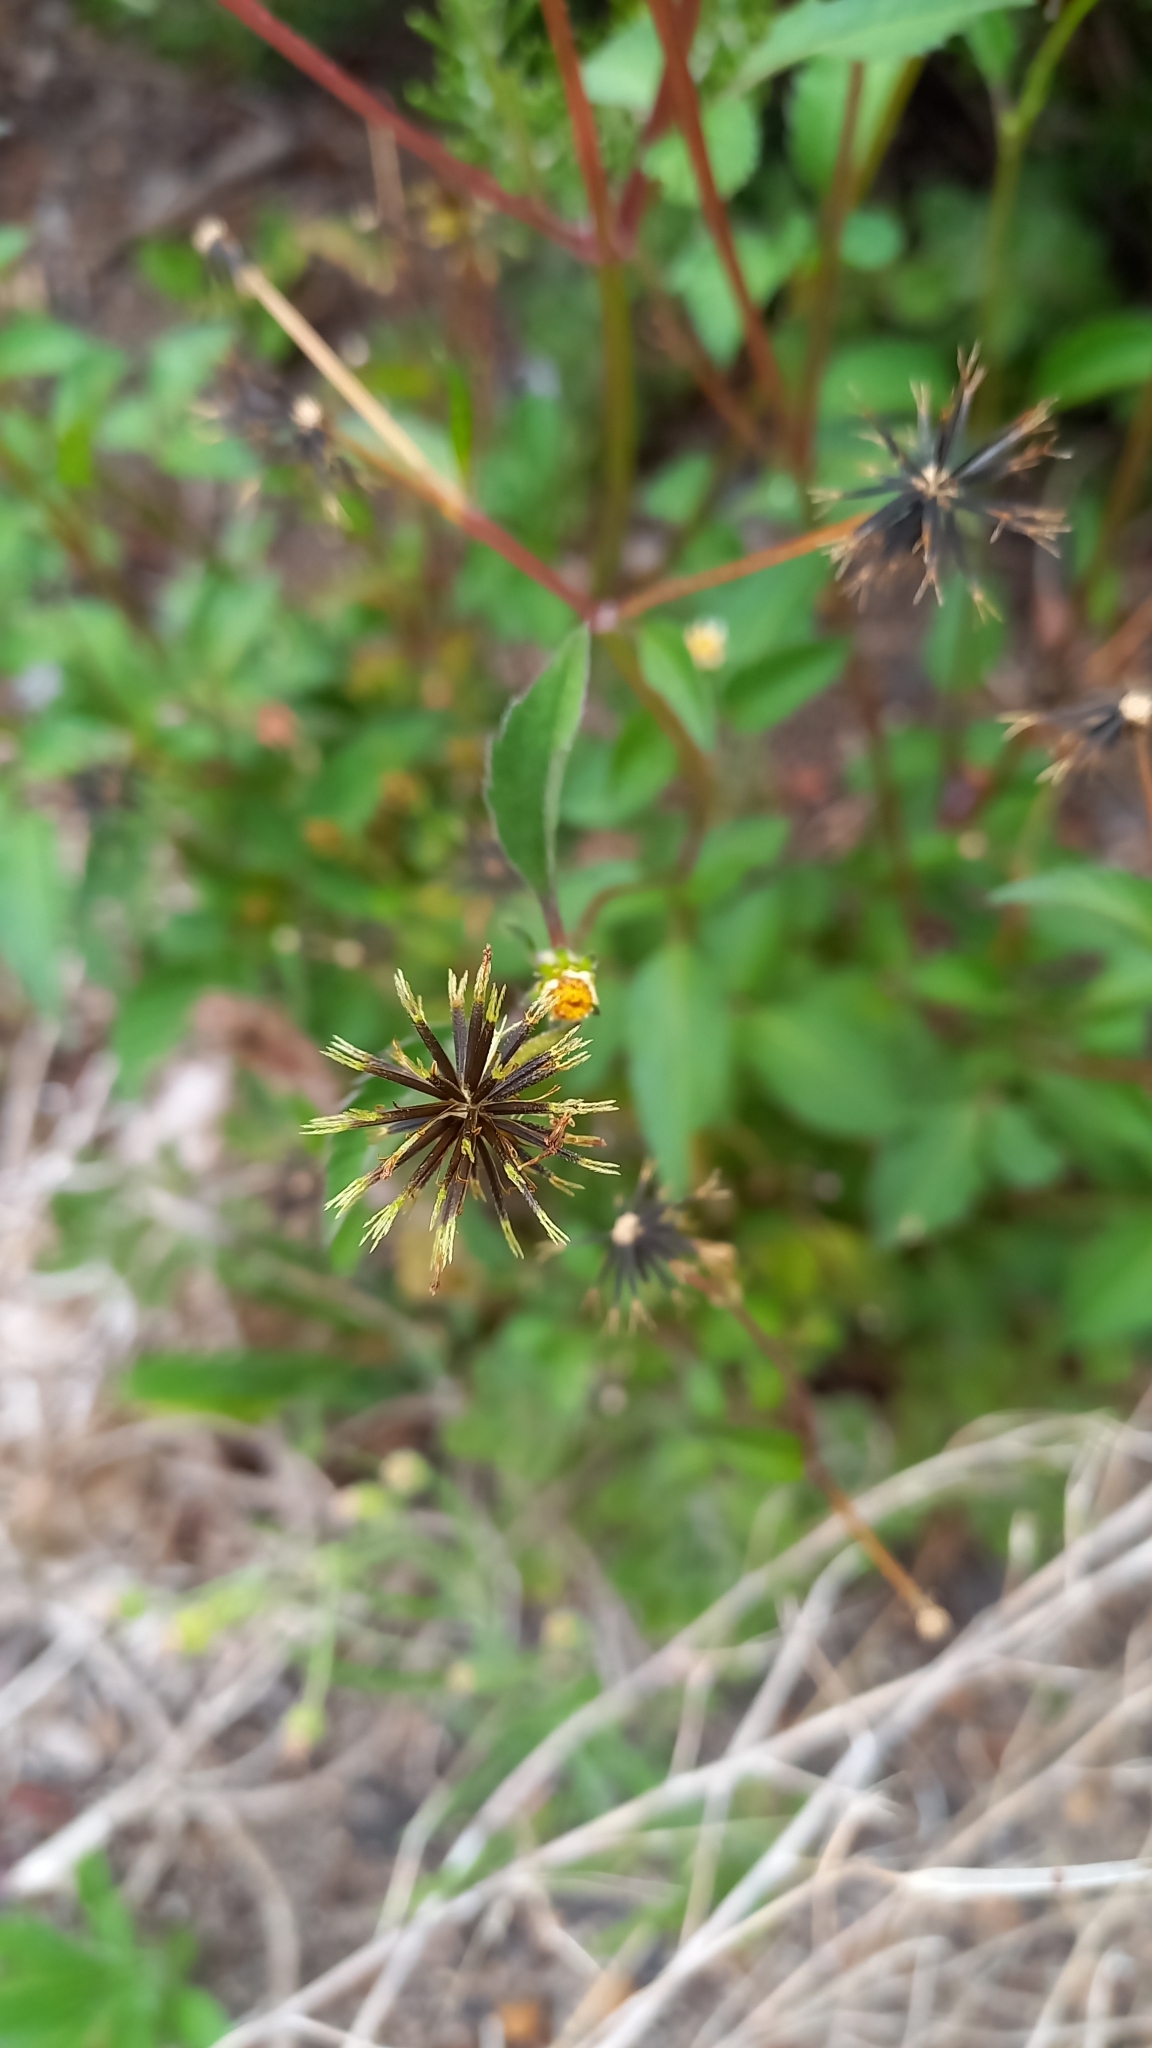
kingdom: Plantae
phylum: Tracheophyta
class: Magnoliopsida
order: Asterales
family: Asteraceae
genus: Bidens
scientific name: Bidens pilosa
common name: Black-jack
